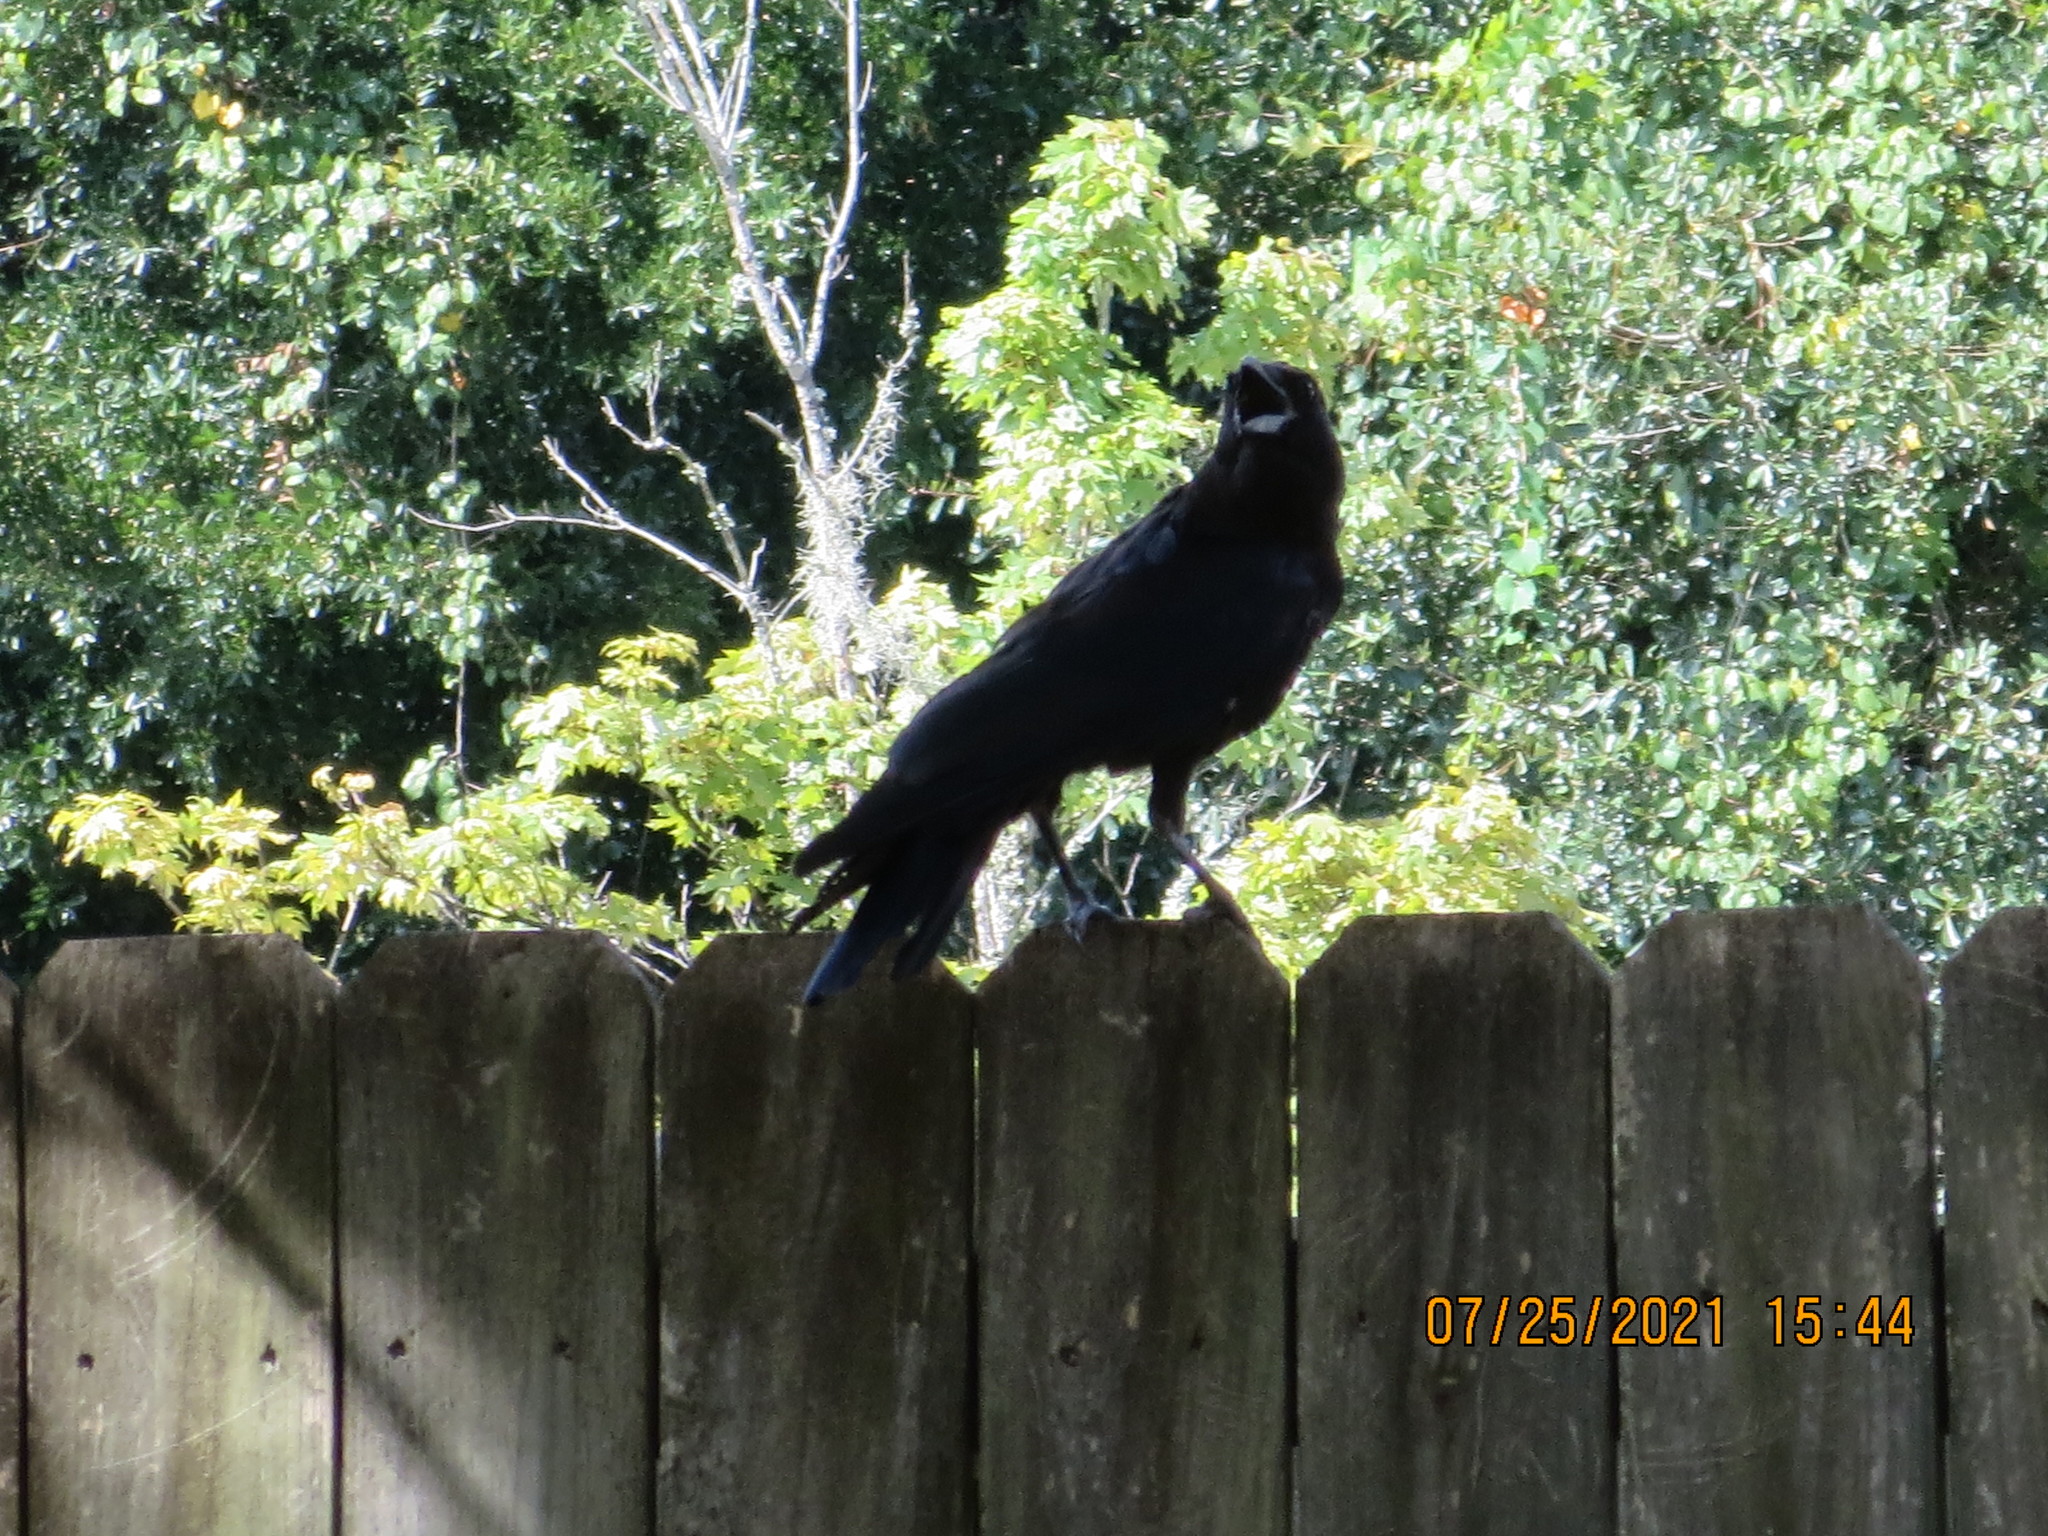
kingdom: Animalia
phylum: Chordata
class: Aves
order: Passeriformes
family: Corvidae
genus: Corvus
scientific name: Corvus
